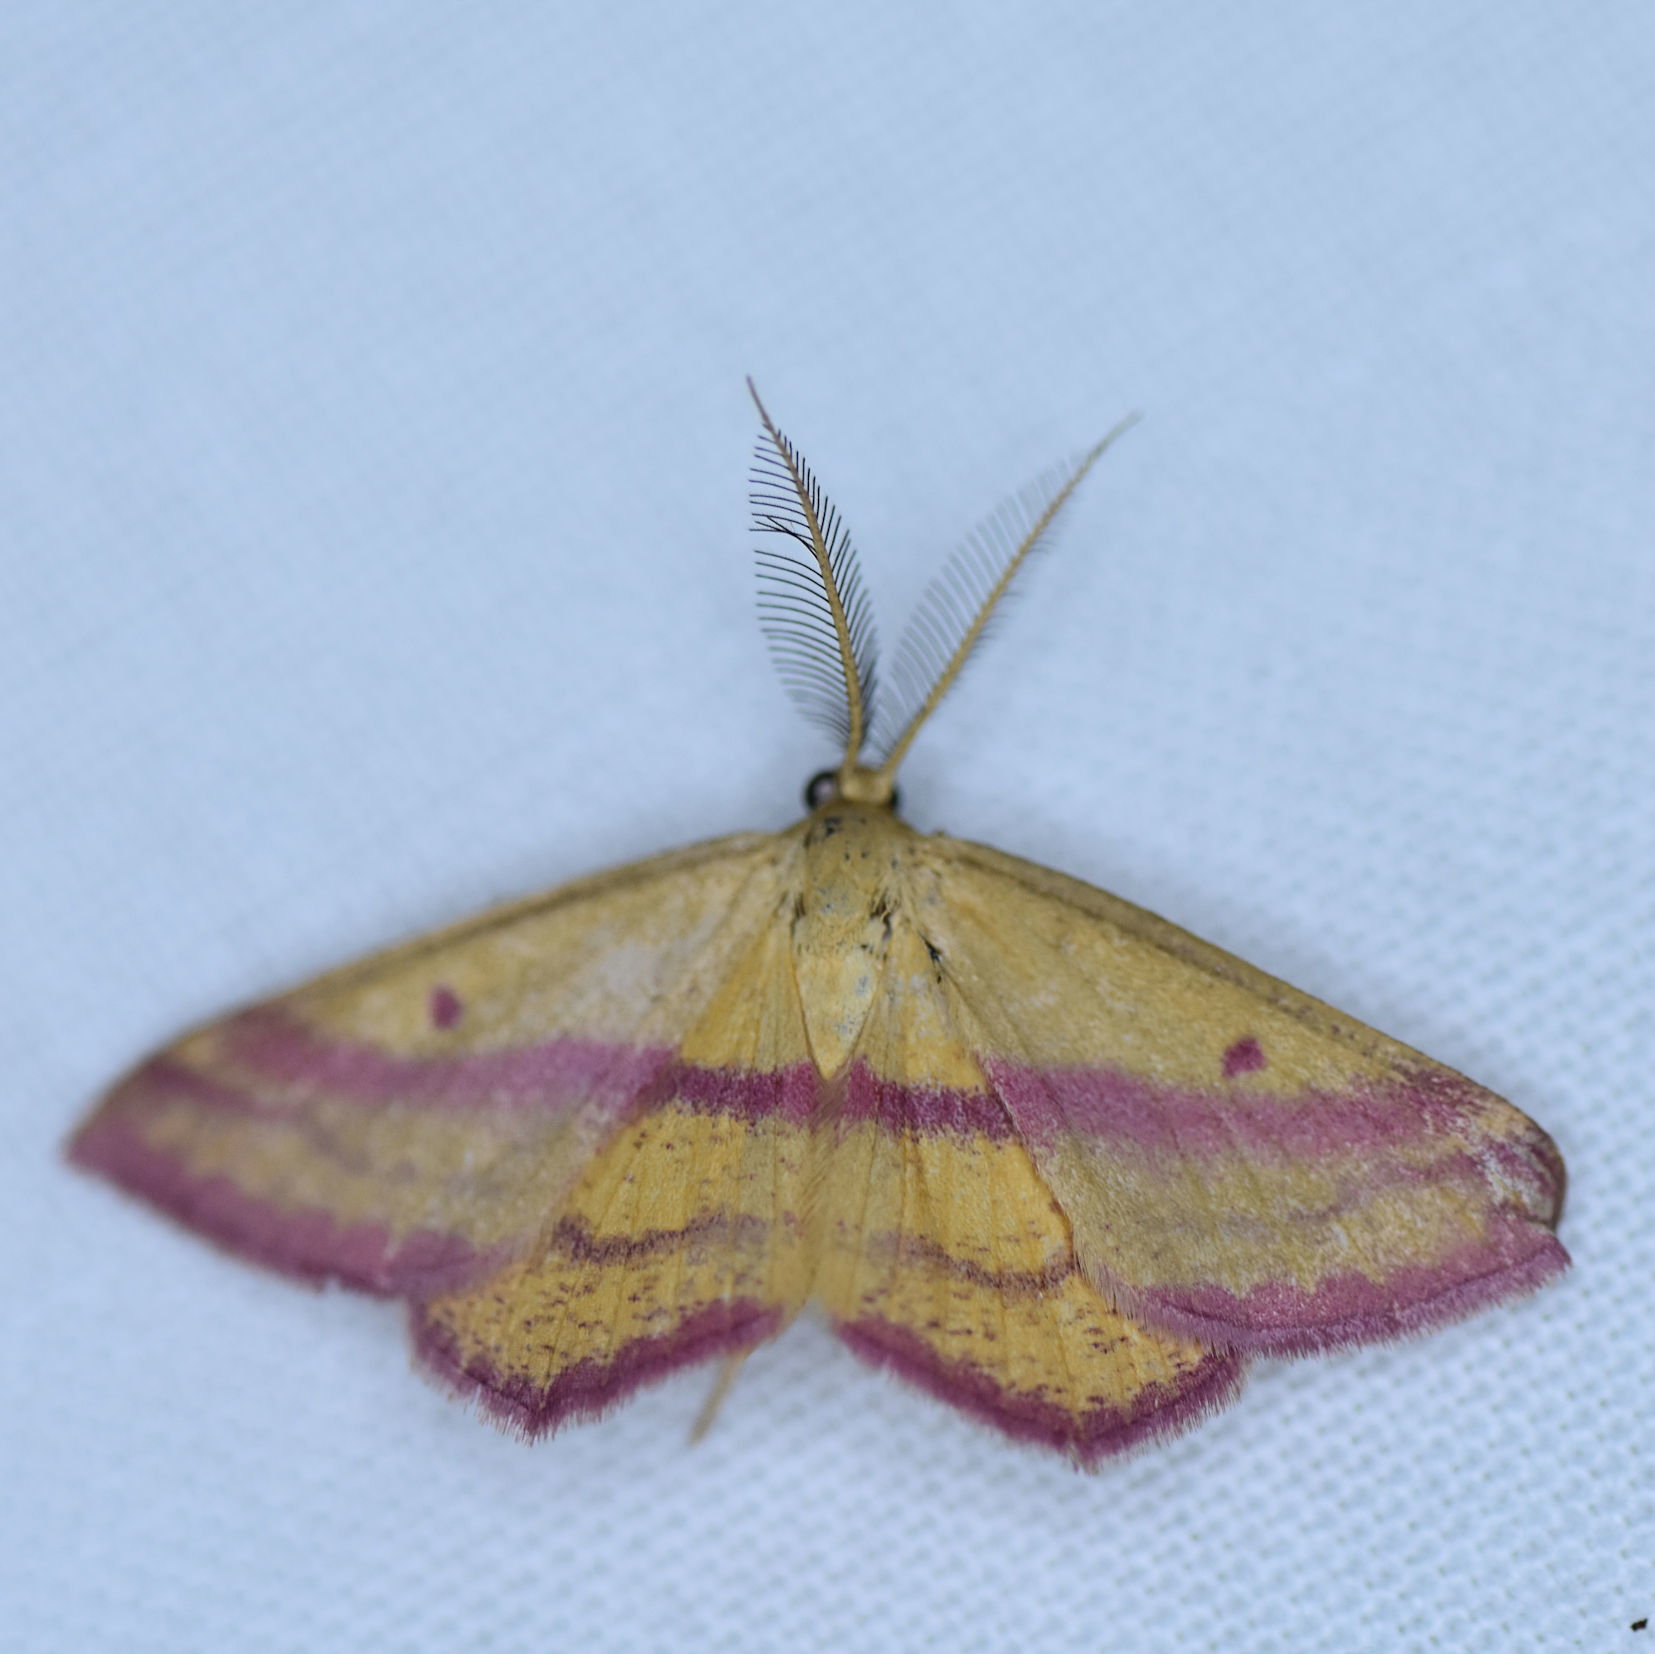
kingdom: Animalia
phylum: Arthropoda
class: Insecta
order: Lepidoptera
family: Geometridae
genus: Haematopis
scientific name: Haematopis grataria
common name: Chickweed geometer
